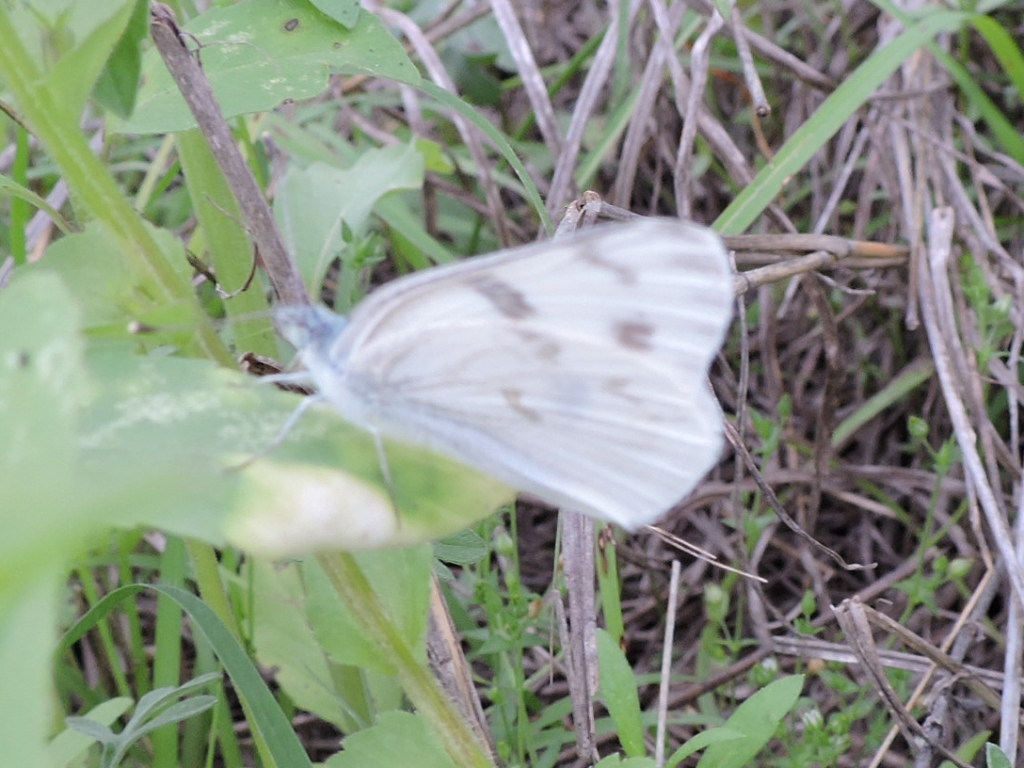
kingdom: Animalia
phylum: Arthropoda
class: Insecta
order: Lepidoptera
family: Pieridae
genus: Pontia
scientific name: Pontia protodice
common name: Checkered white
